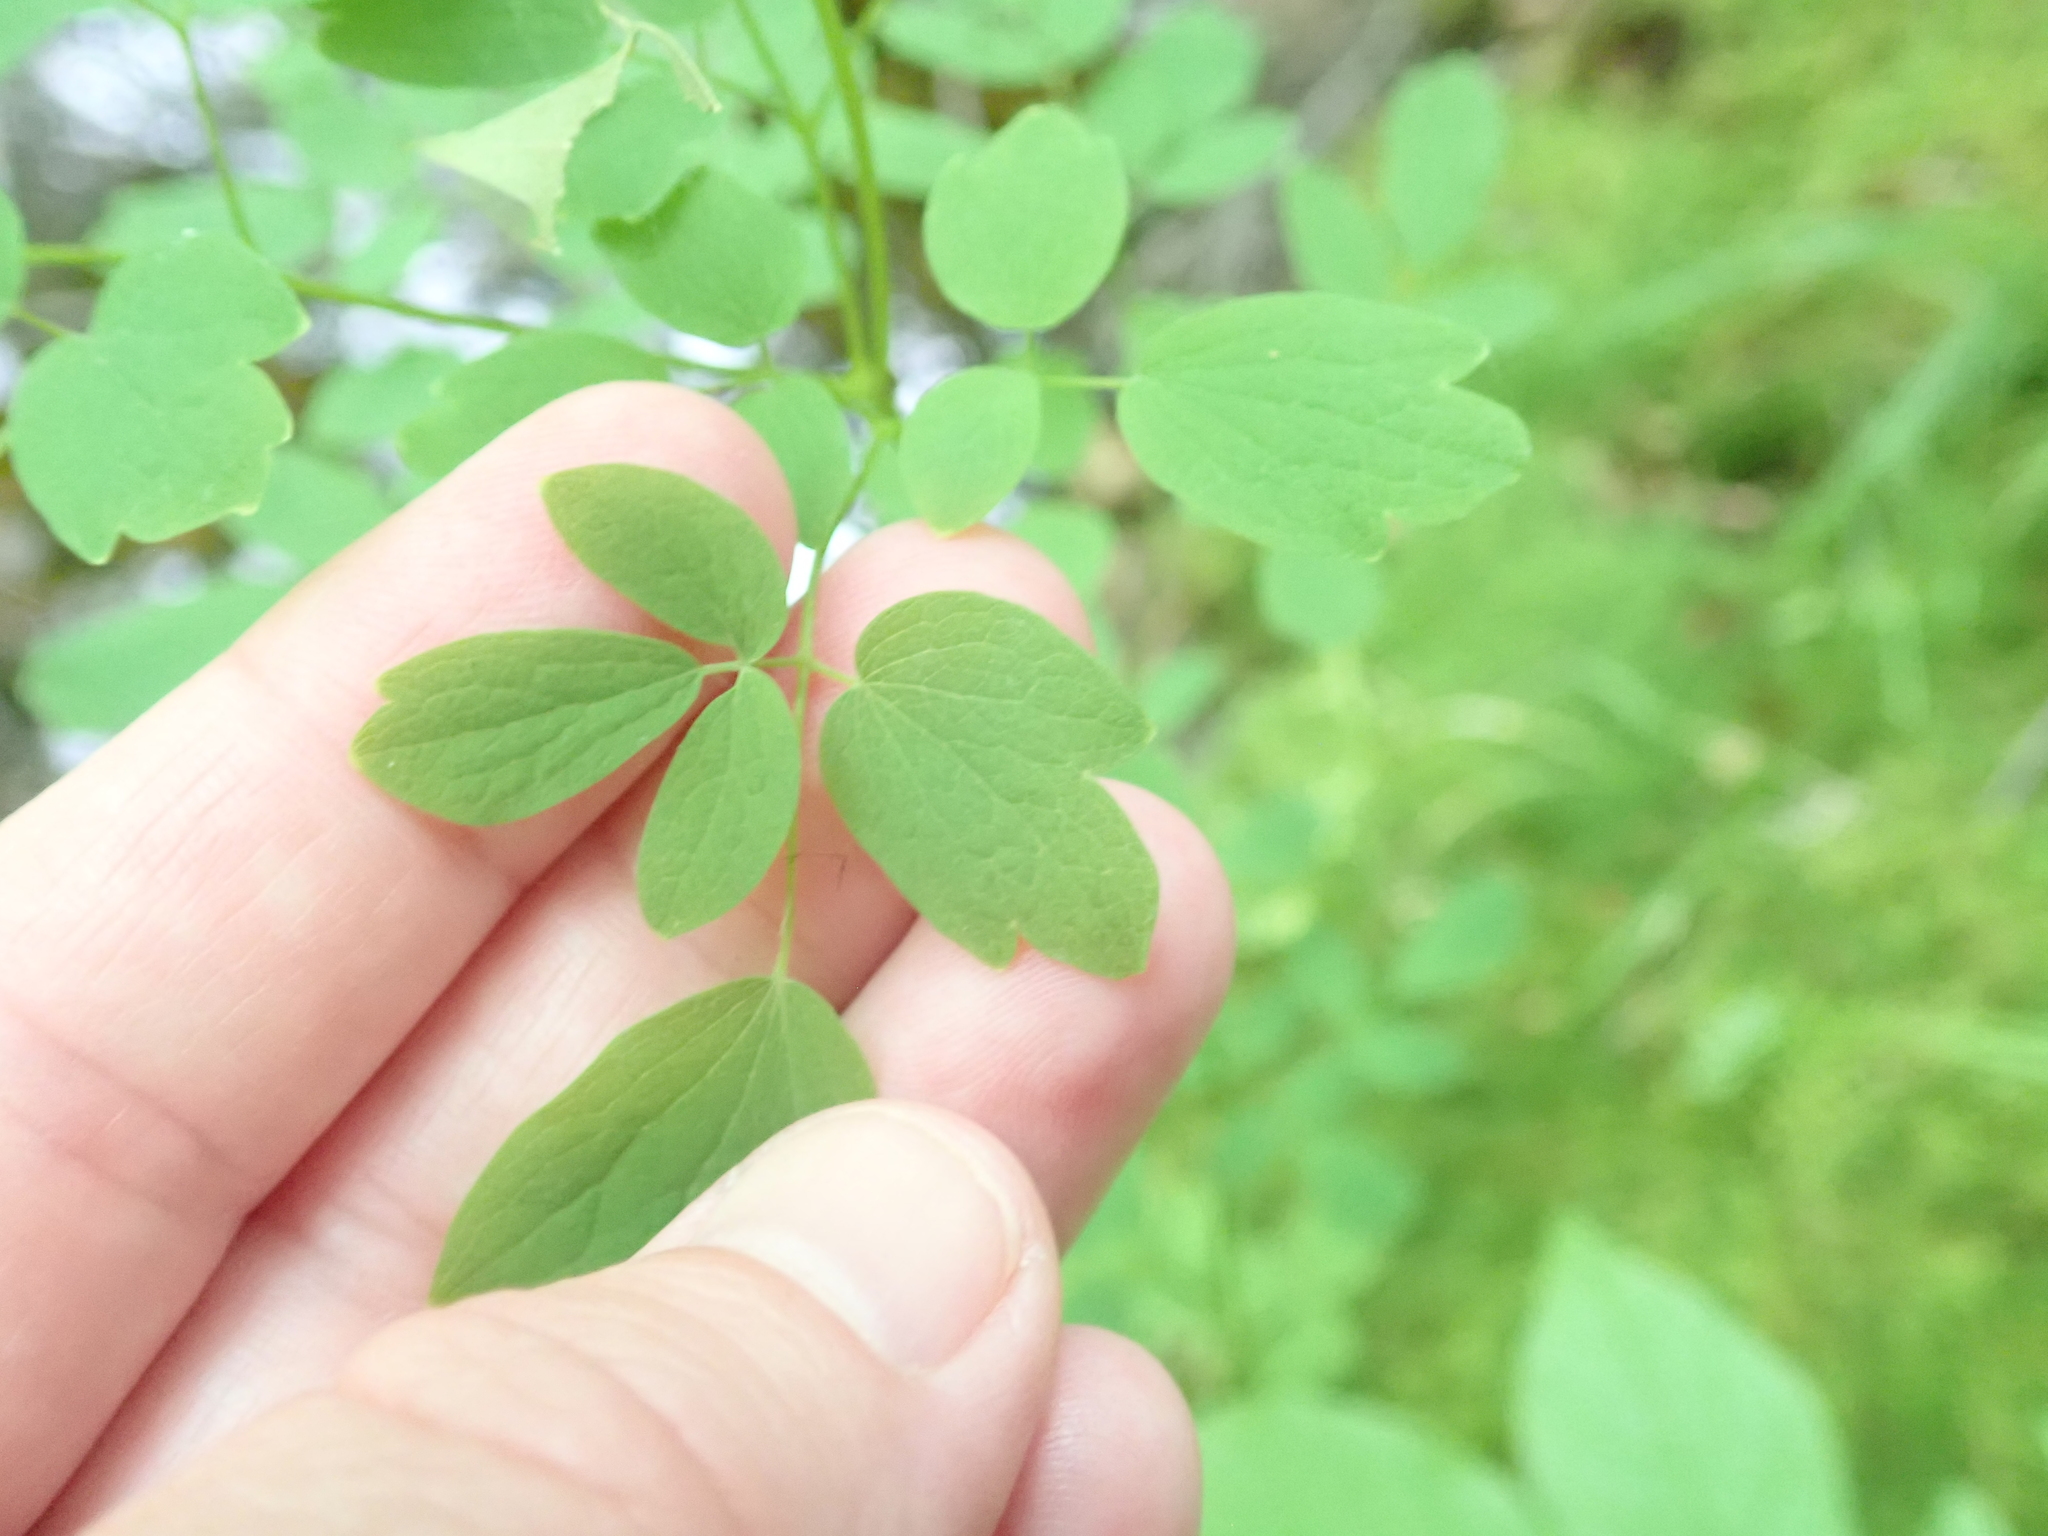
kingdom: Plantae
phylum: Tracheophyta
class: Magnoliopsida
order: Ranunculales
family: Ranunculaceae
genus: Thalictrum
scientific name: Thalictrum pubescens
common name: King-of-the-meadow
